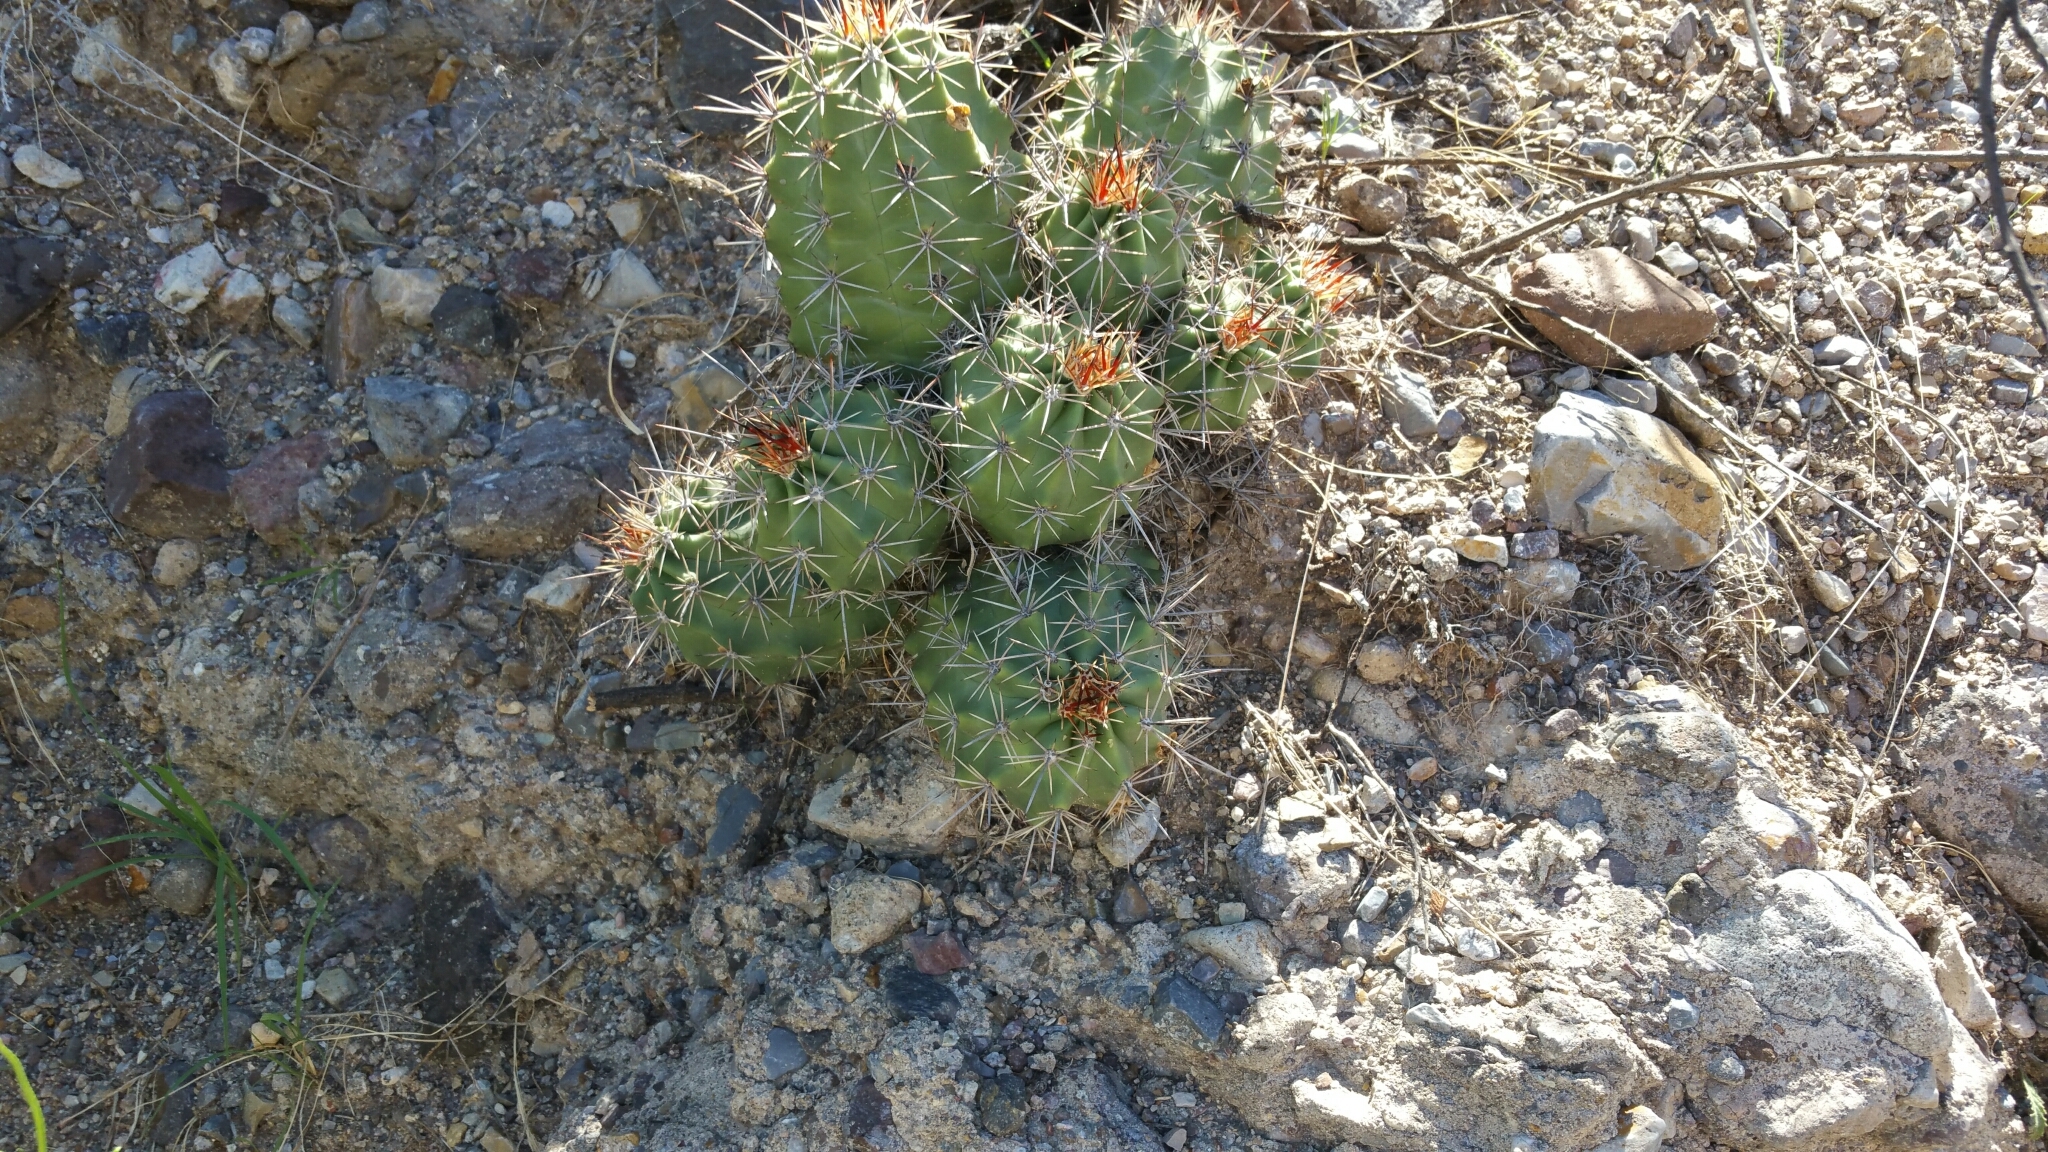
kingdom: Plantae
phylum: Tracheophyta
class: Magnoliopsida
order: Caryophyllales
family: Cactaceae
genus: Echinocereus
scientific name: Echinocereus coccineus
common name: Scarlet hedgehog cactus
